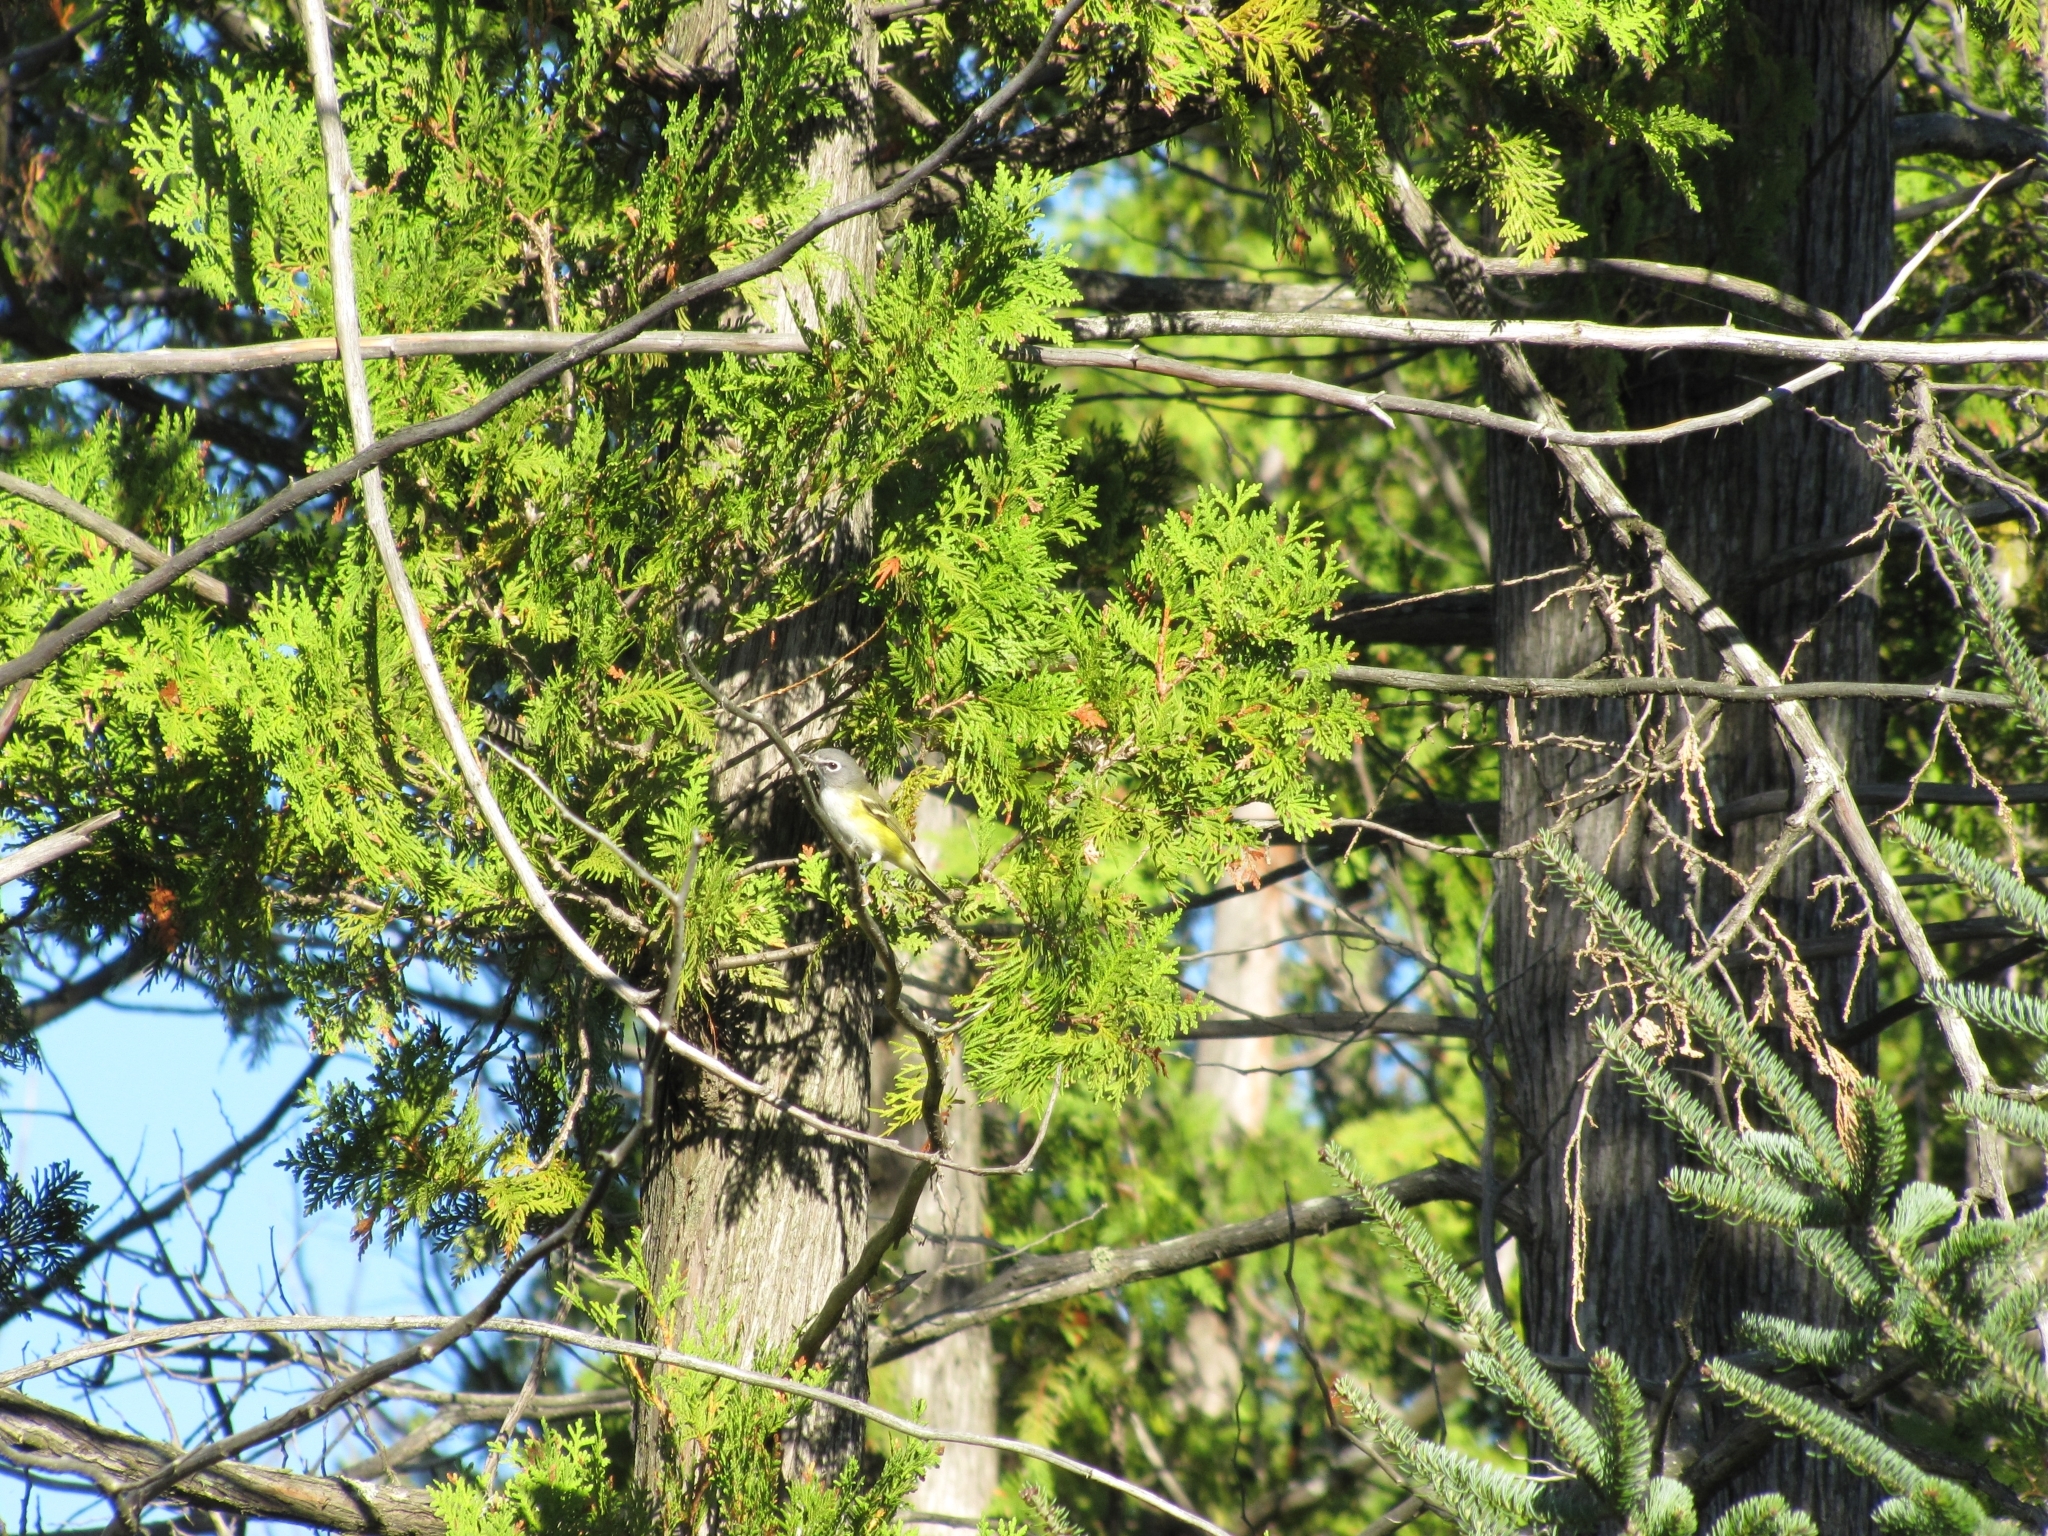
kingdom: Animalia
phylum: Chordata
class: Aves
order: Passeriformes
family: Vireonidae
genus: Vireo
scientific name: Vireo solitarius
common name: Blue-headed vireo
